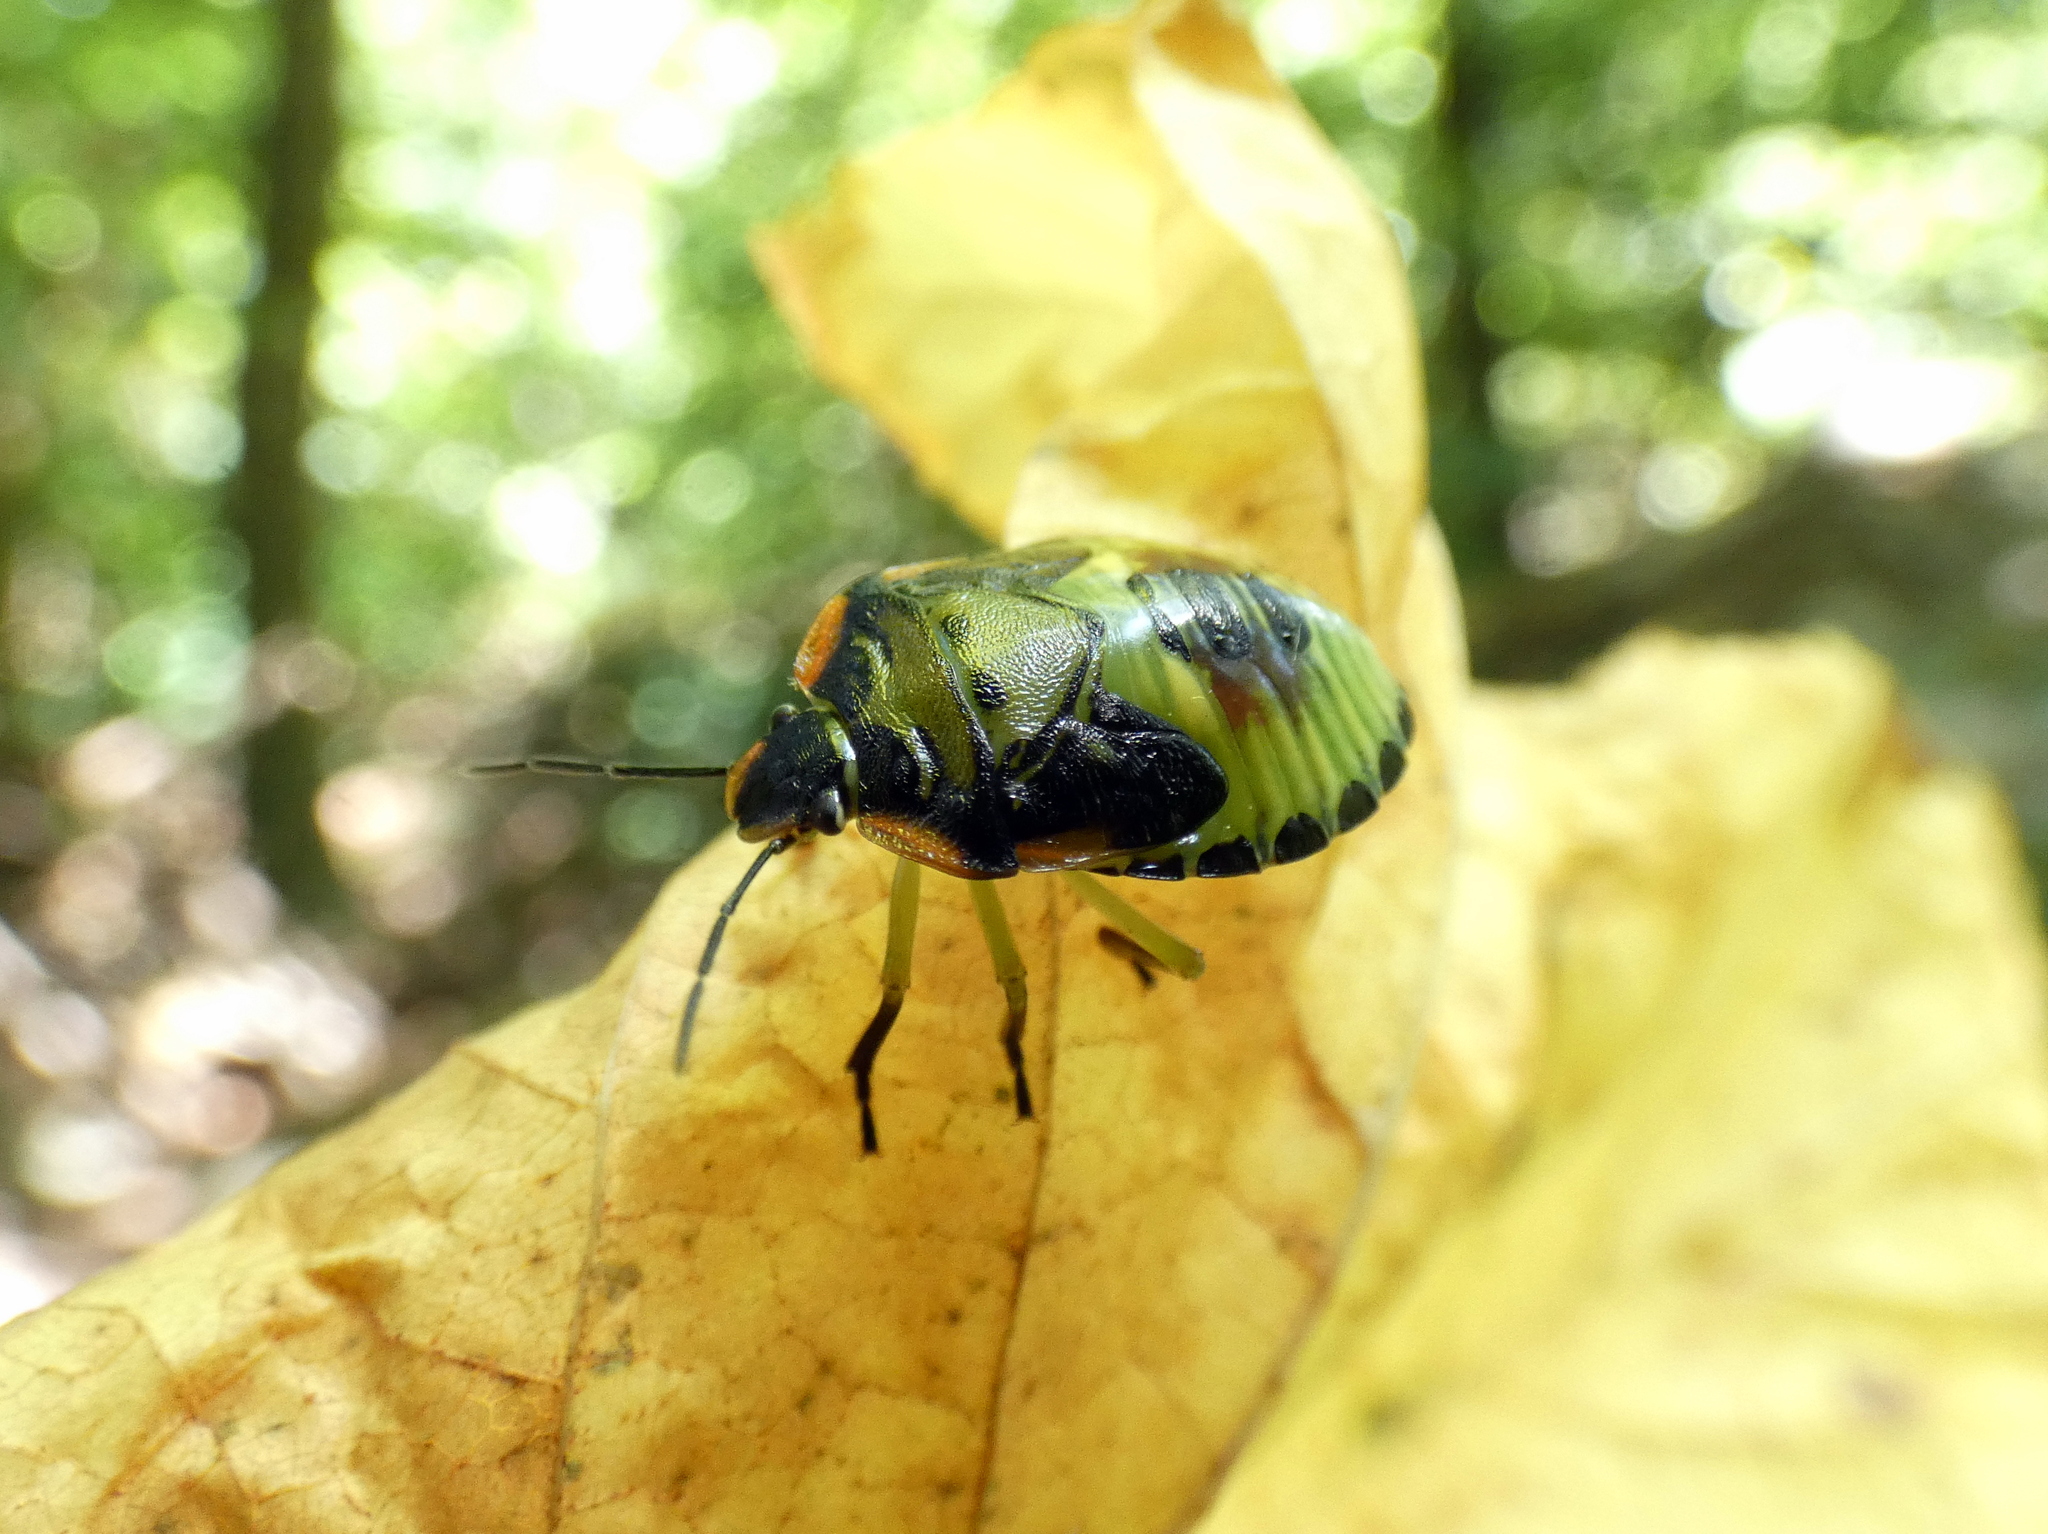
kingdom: Animalia
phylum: Arthropoda
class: Insecta
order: Hemiptera
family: Pentatomidae
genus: Chinavia
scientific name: Chinavia hilaris
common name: Green stink bug
